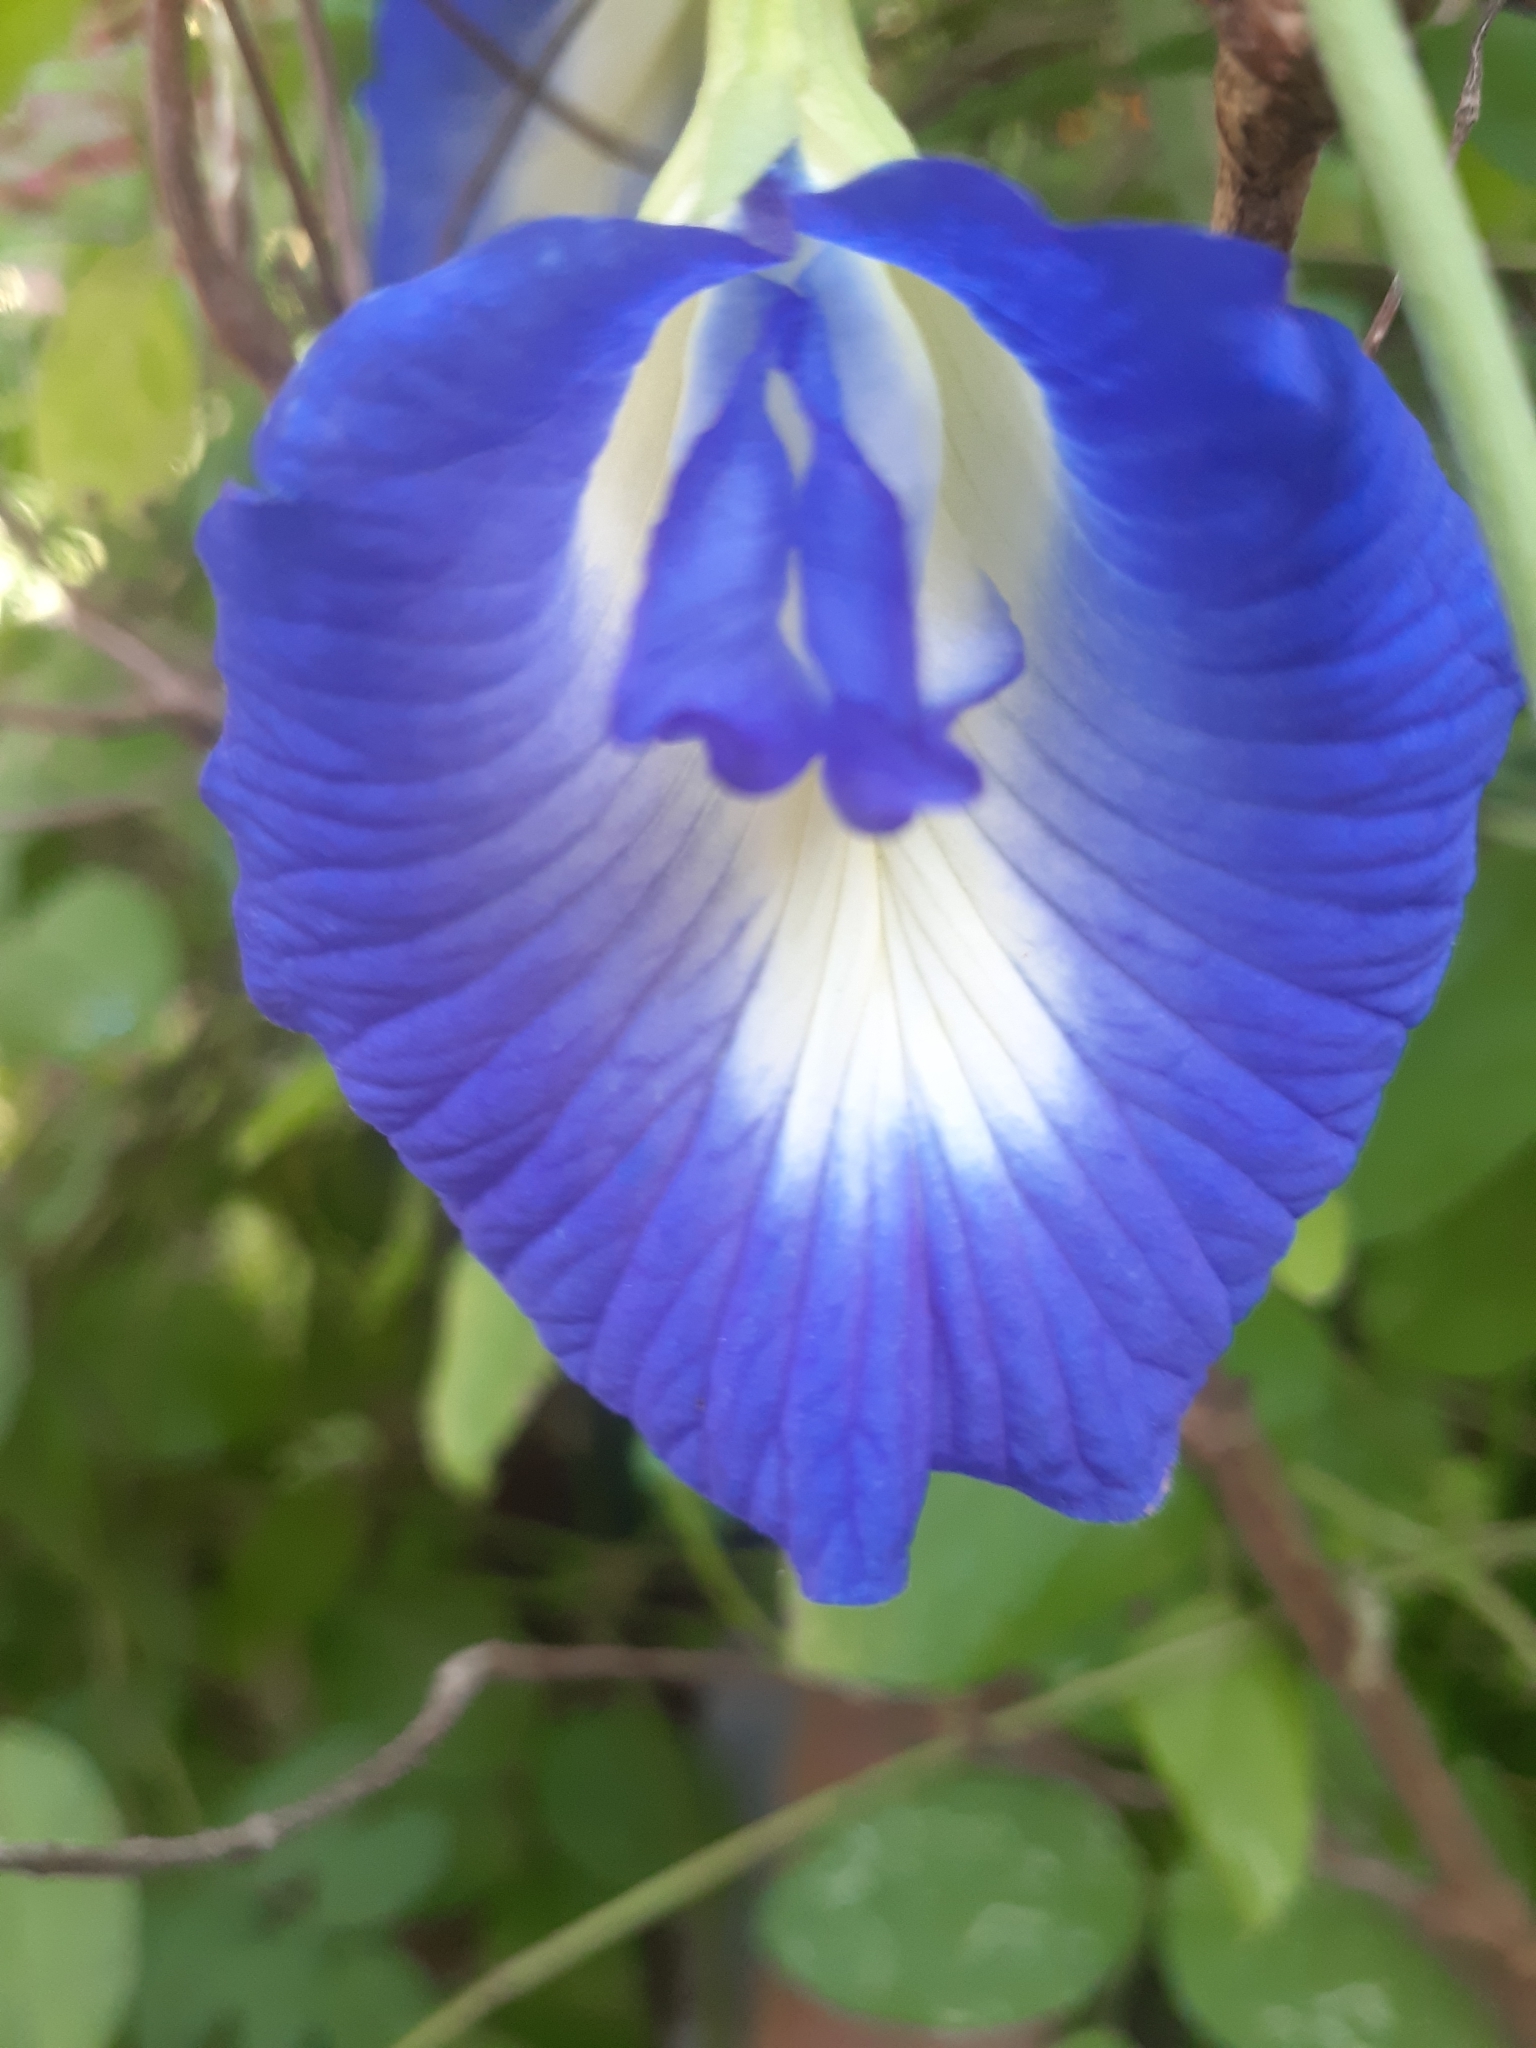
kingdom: Plantae
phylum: Tracheophyta
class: Magnoliopsida
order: Fabales
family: Fabaceae
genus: Clitoria
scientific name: Clitoria ternatea
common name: Asian pigeonwings
